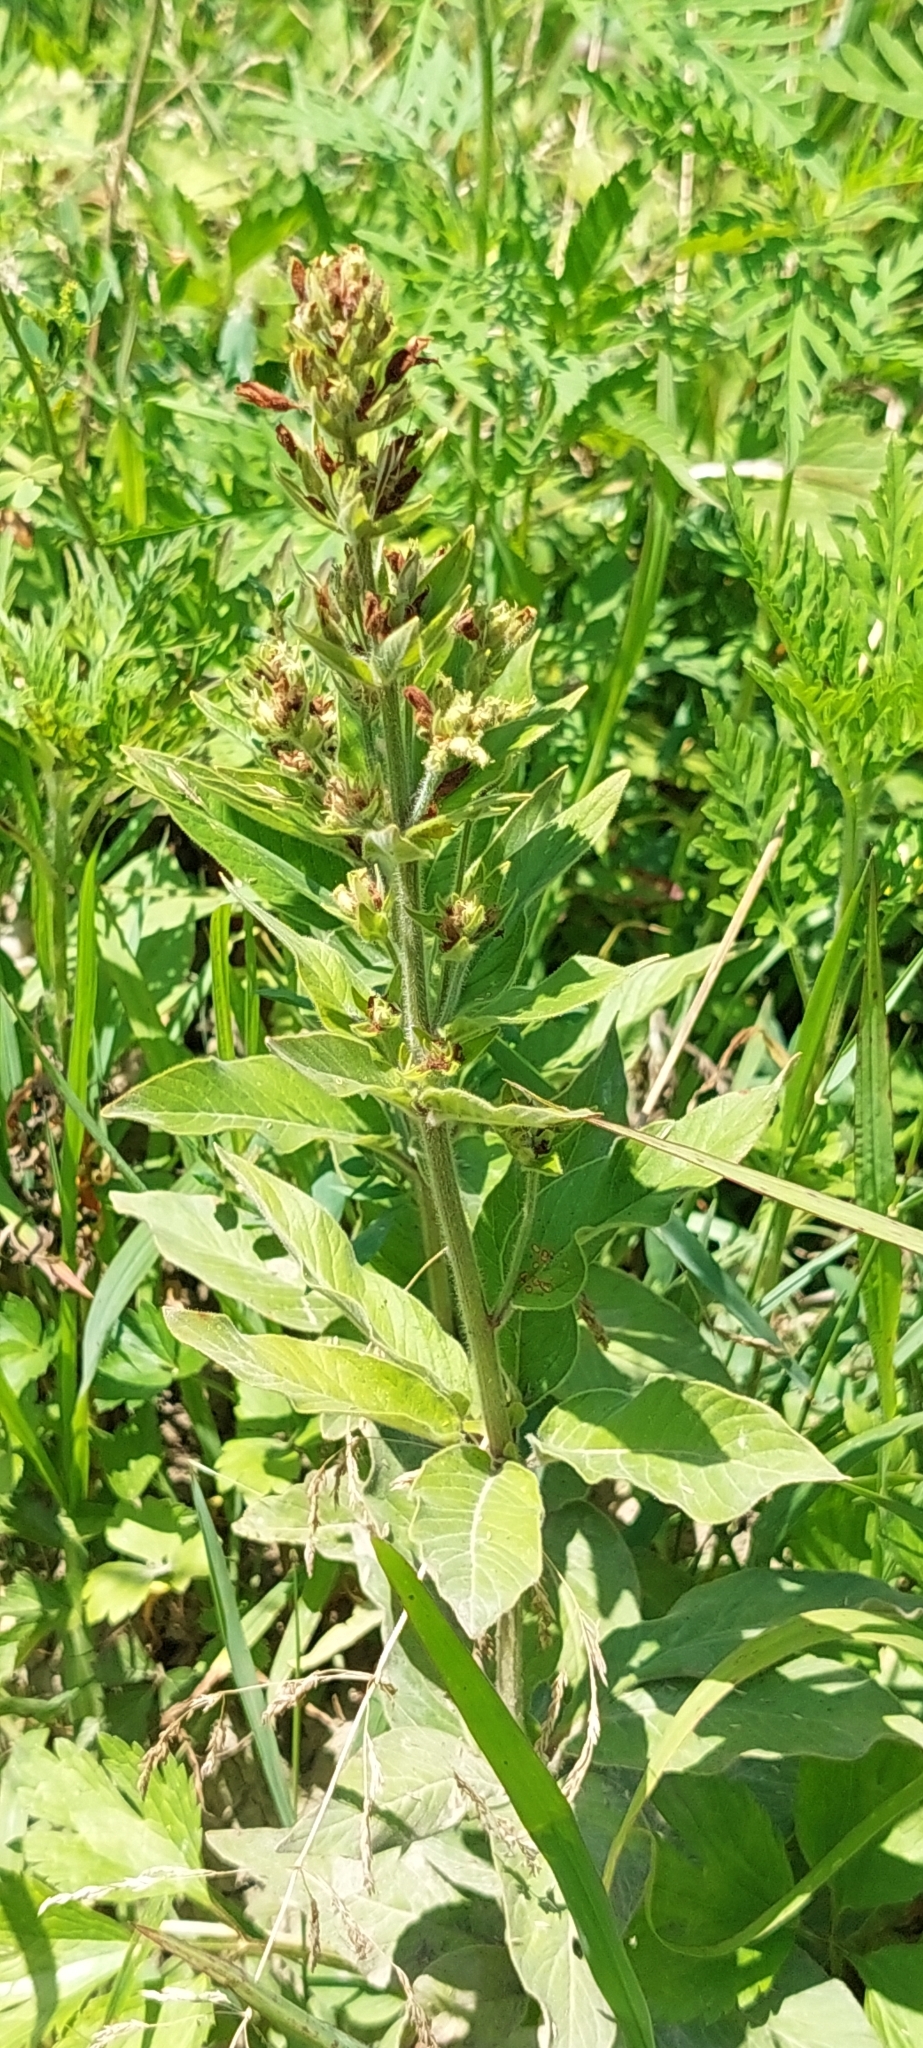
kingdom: Plantae
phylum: Tracheophyta
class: Magnoliopsida
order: Ericales
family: Primulaceae
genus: Lysimachia
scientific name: Lysimachia vulgaris
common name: Yellow loosestrife
